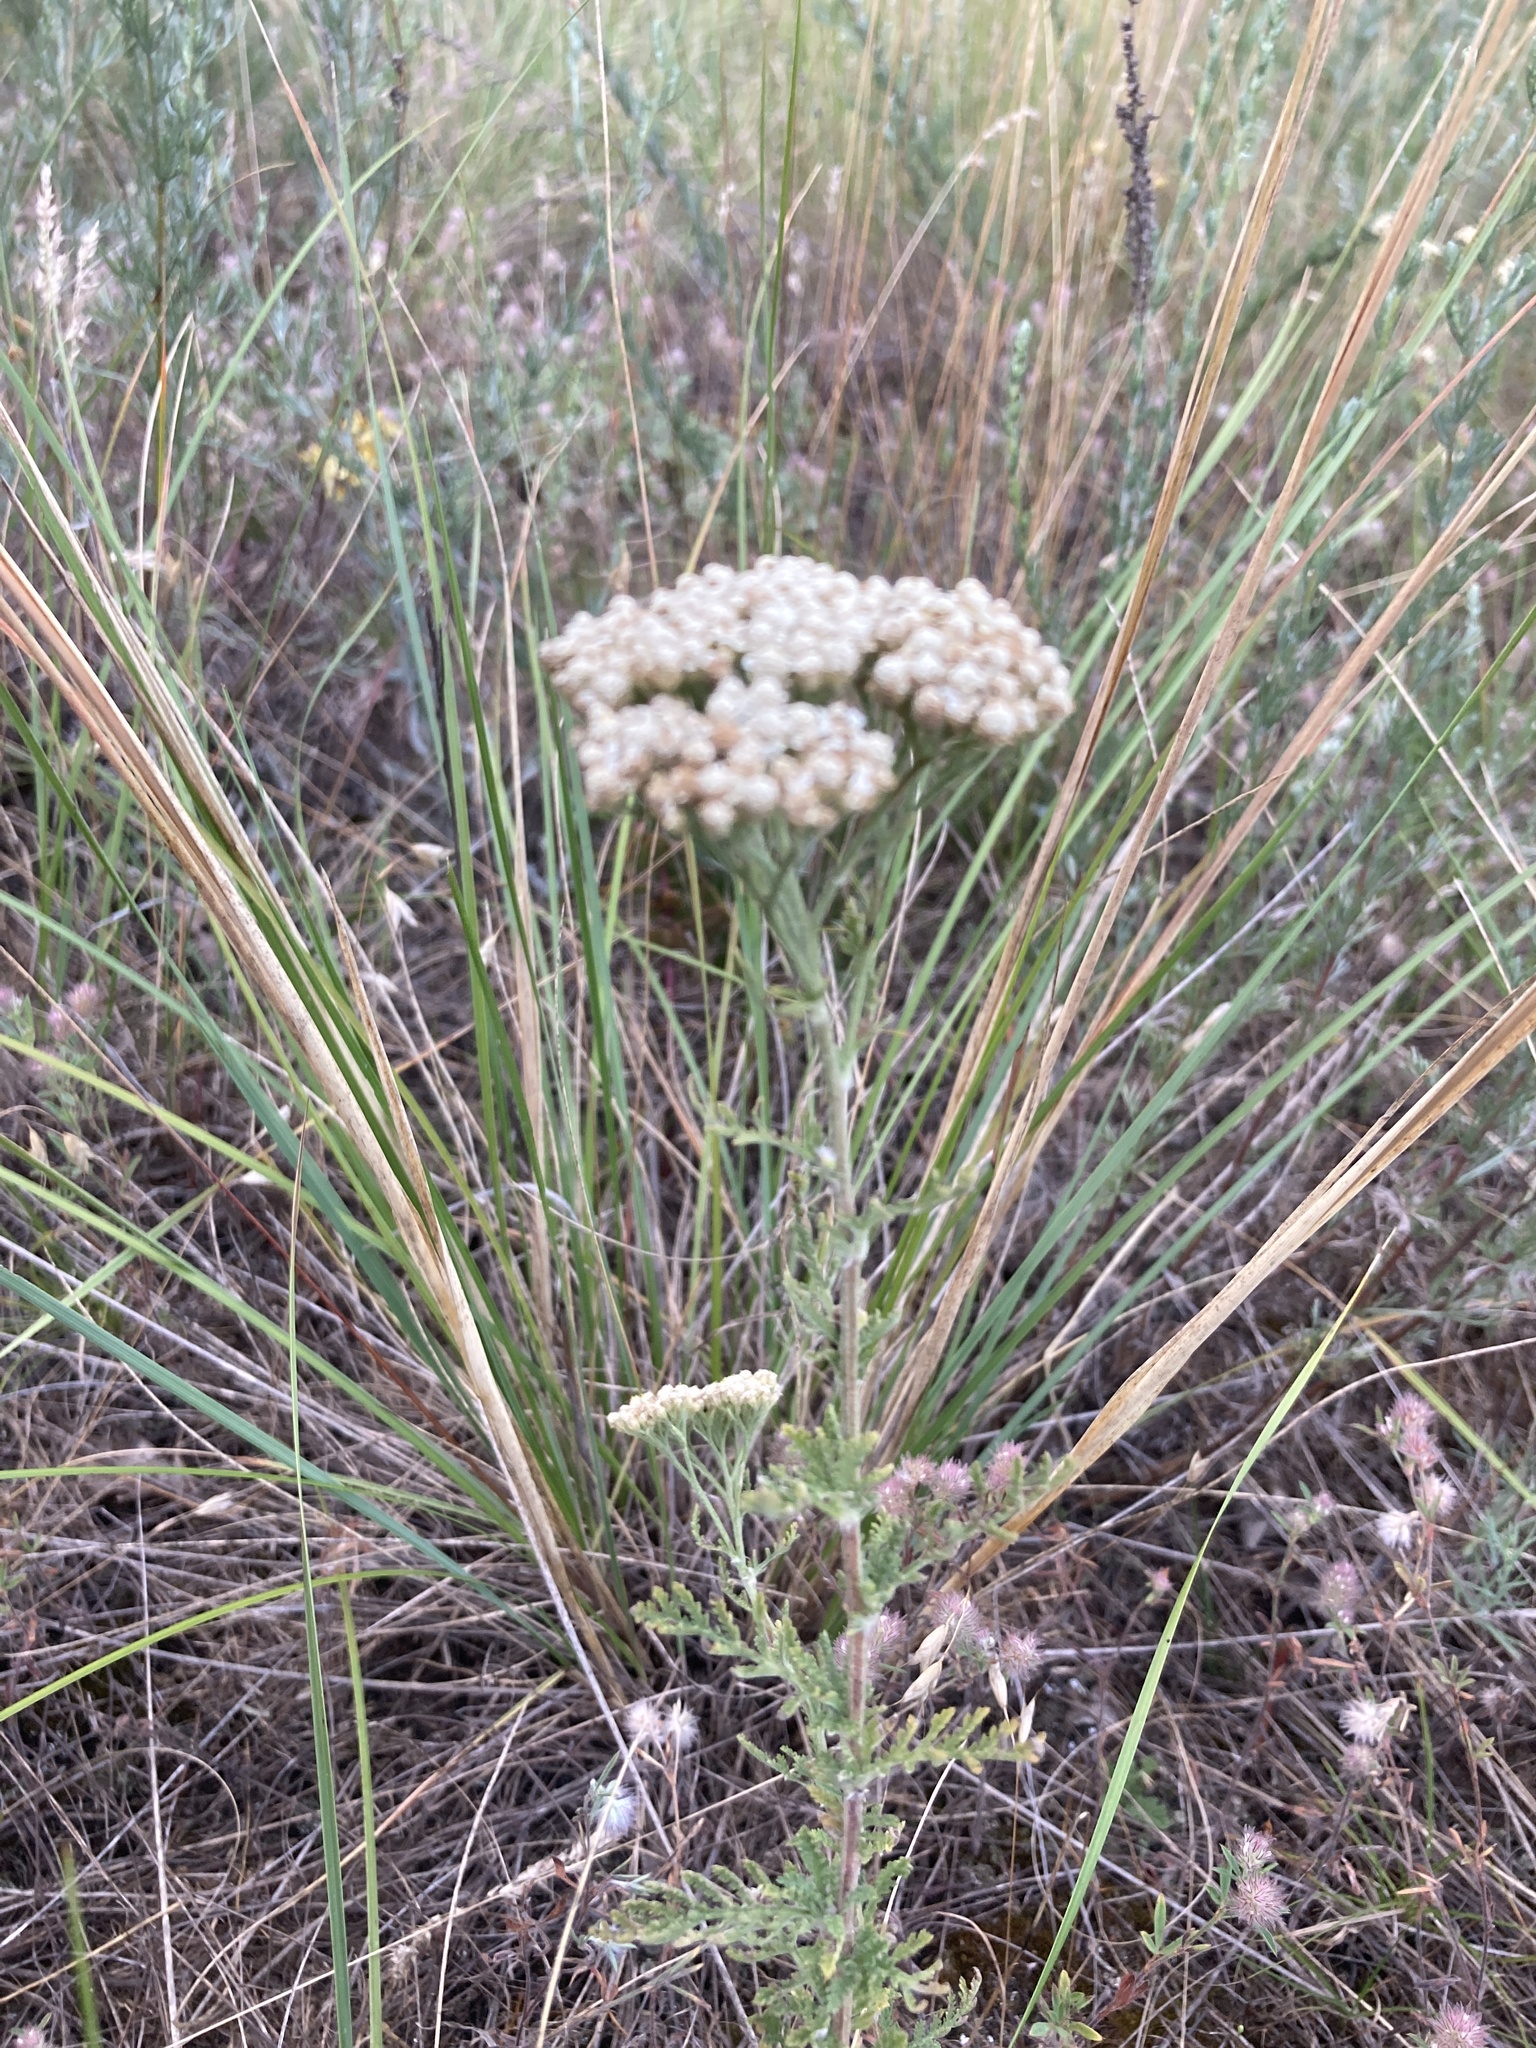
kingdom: Plantae
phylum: Tracheophyta
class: Magnoliopsida
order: Asterales
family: Asteraceae
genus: Achillea
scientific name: Achillea nobilis
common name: Noble yarrow
